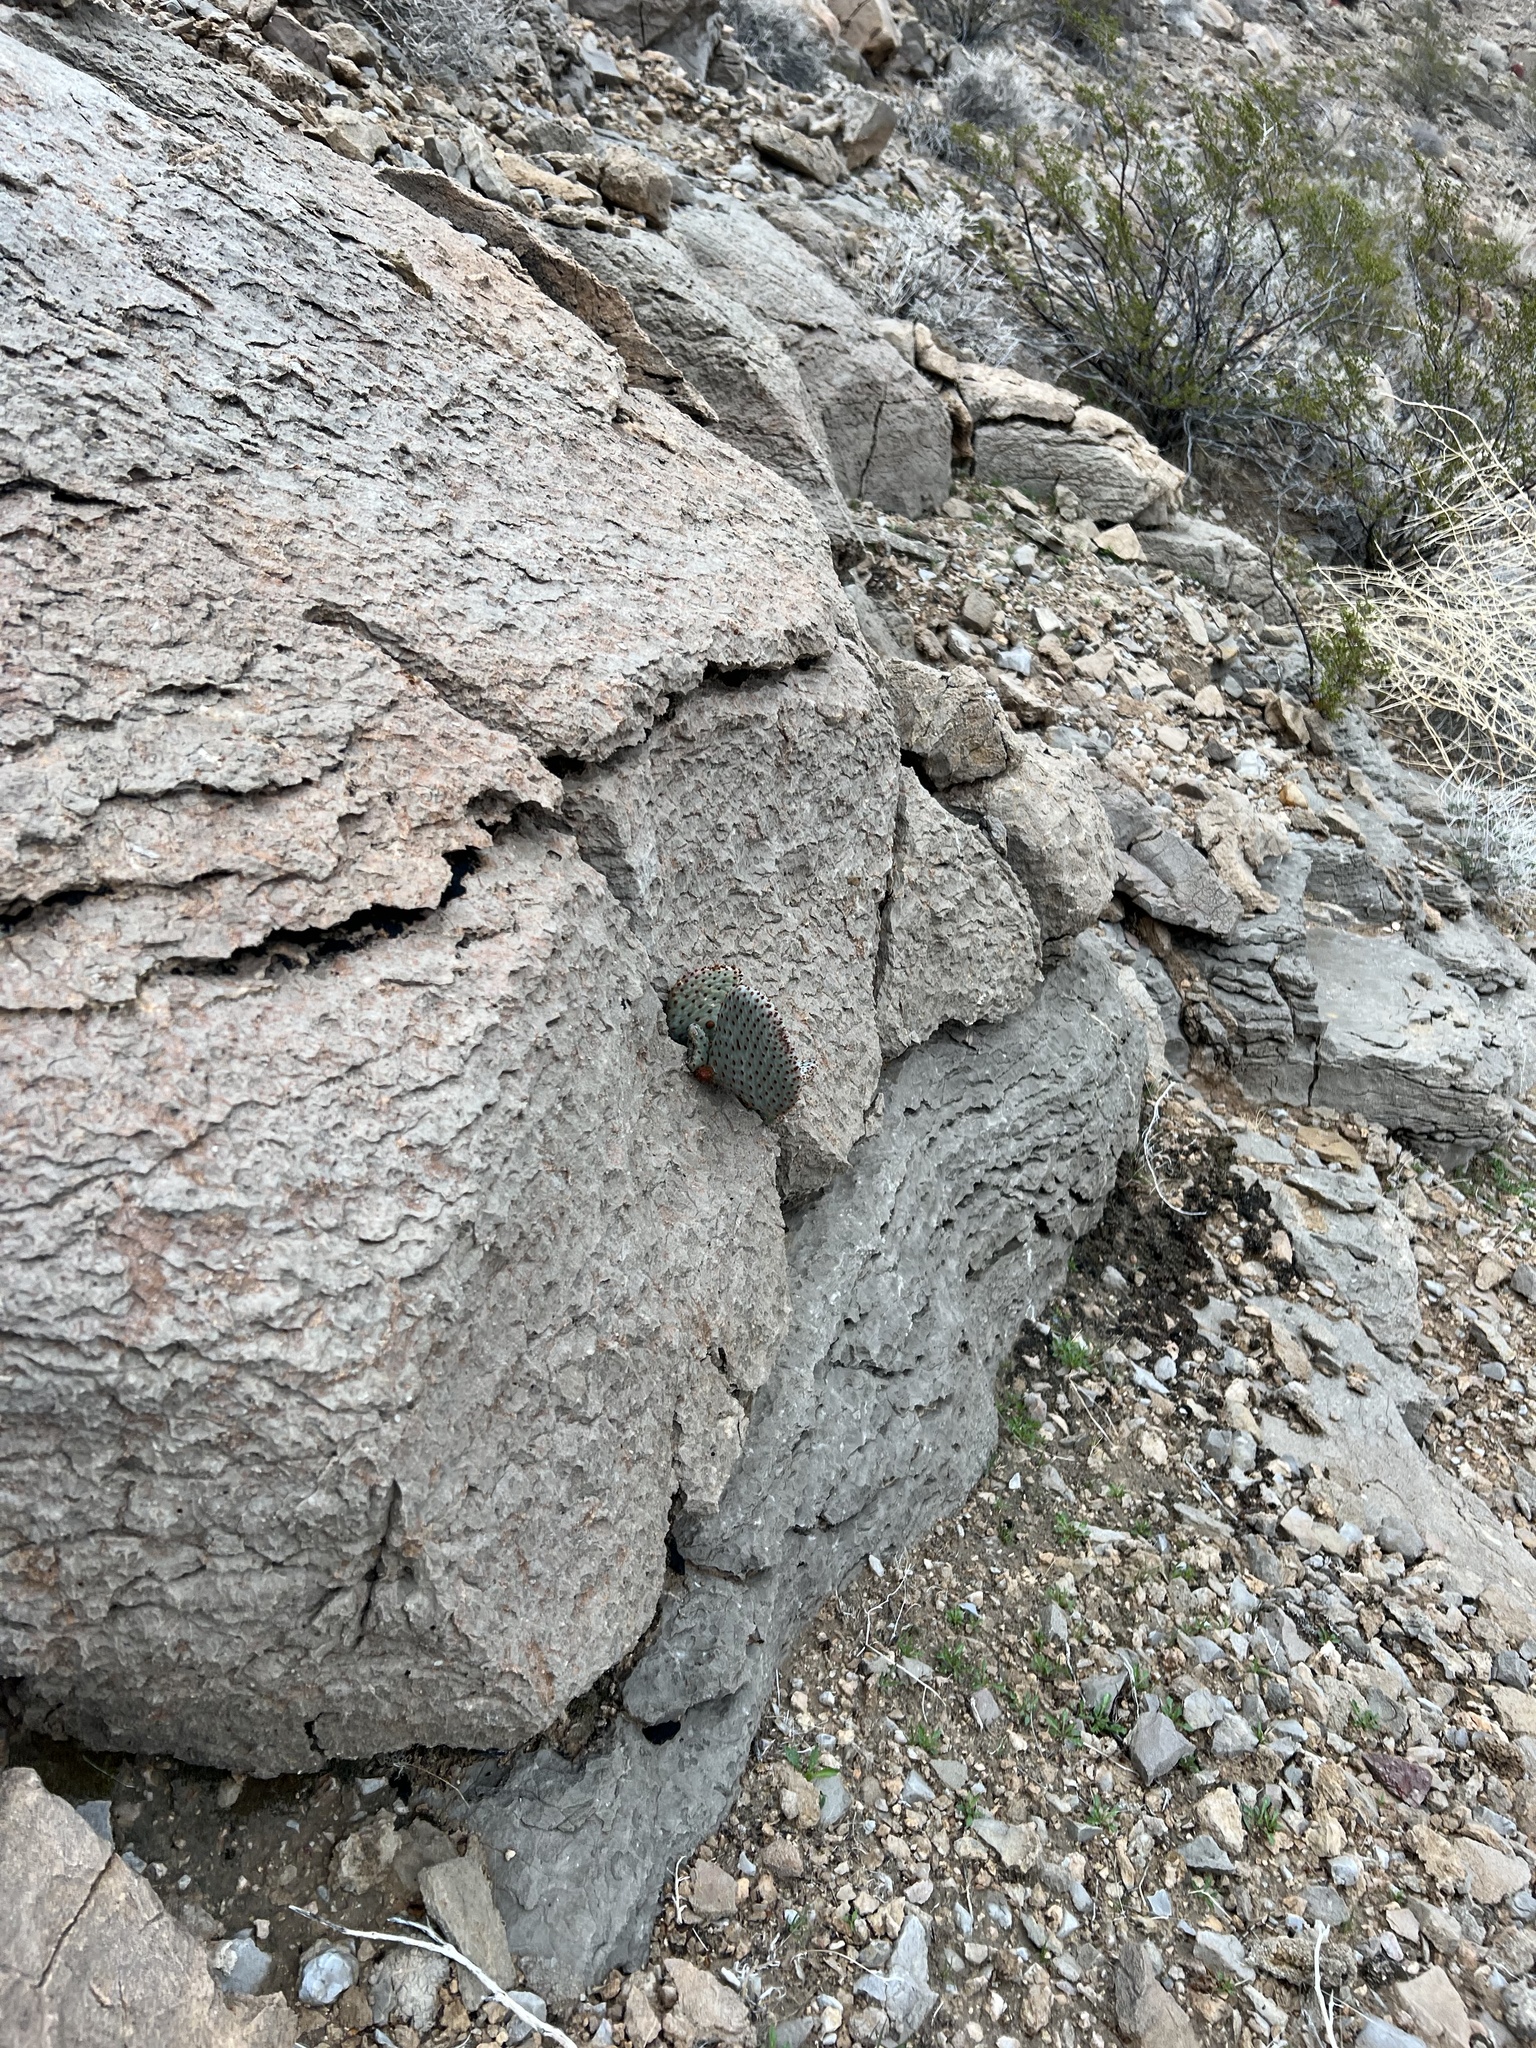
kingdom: Plantae
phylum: Tracheophyta
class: Magnoliopsida
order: Caryophyllales
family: Cactaceae
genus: Opuntia
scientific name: Opuntia basilaris
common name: Beavertail prickly-pear
